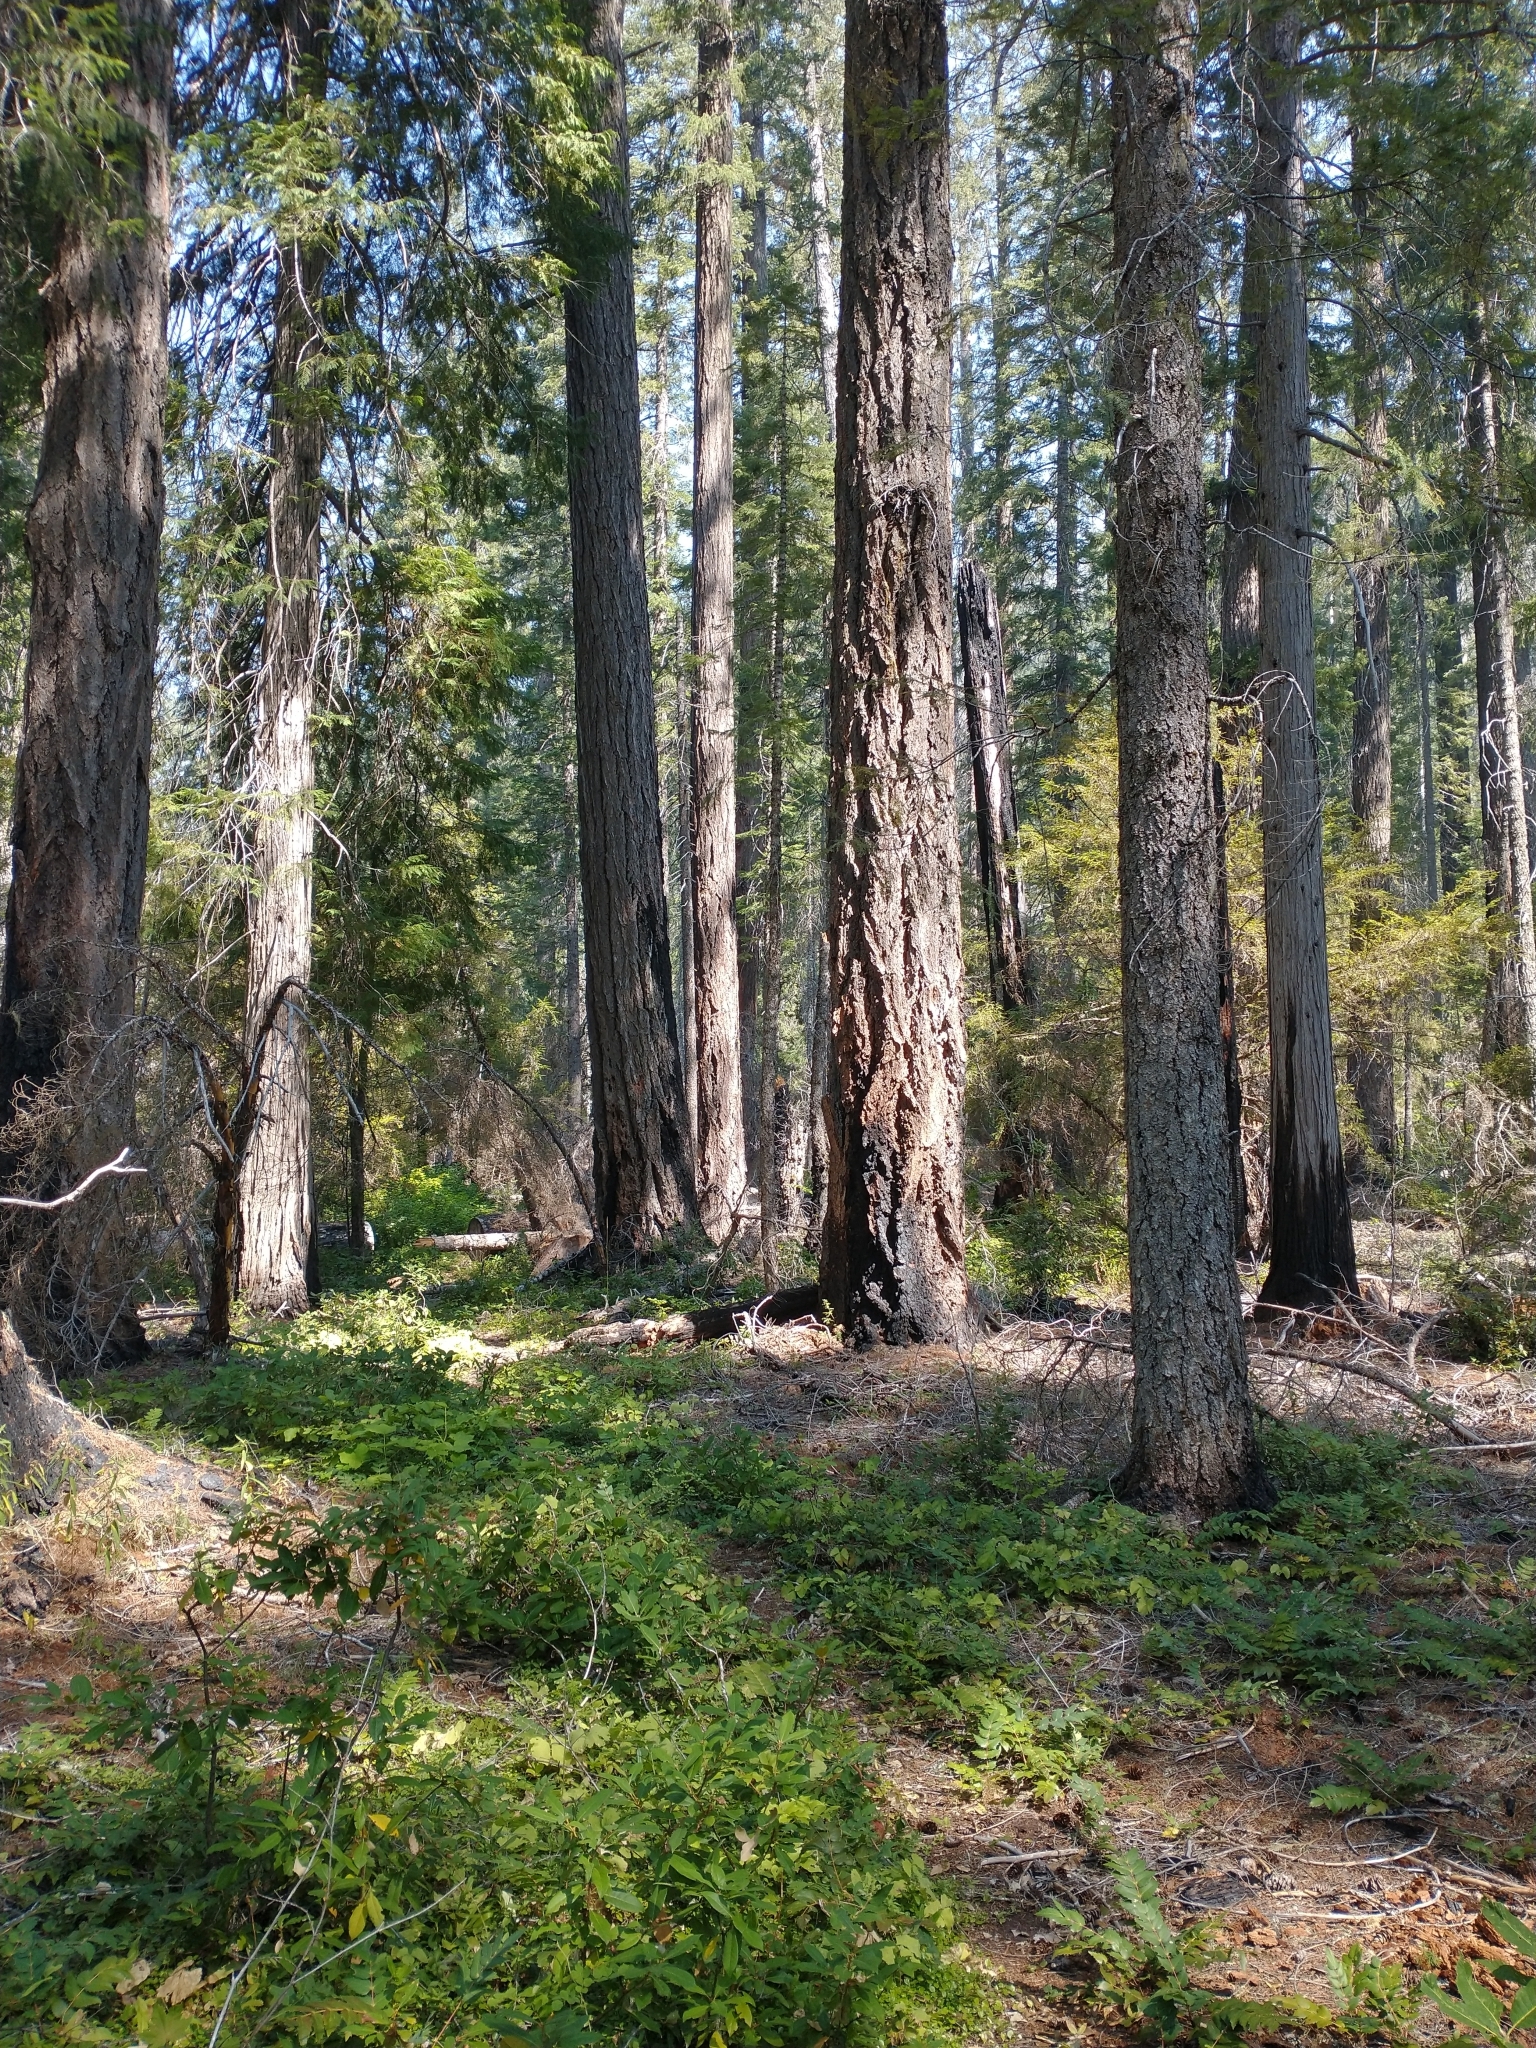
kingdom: Plantae
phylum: Tracheophyta
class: Pinopsida
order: Pinales
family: Pinaceae
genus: Pseudotsuga
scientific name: Pseudotsuga menziesii
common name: Douglas fir
